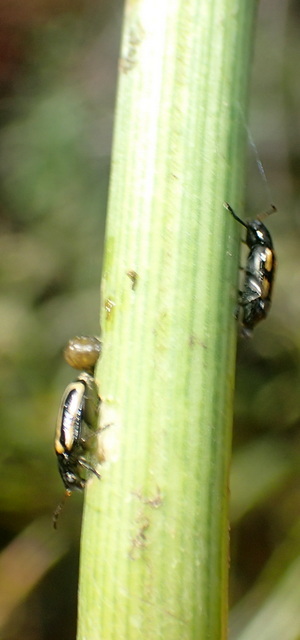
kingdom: Animalia
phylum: Arthropoda
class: Insecta
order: Coleoptera
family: Chrysomelidae
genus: Agasicles
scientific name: Agasicles hygrophila
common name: Alligatorweed flea beetle
